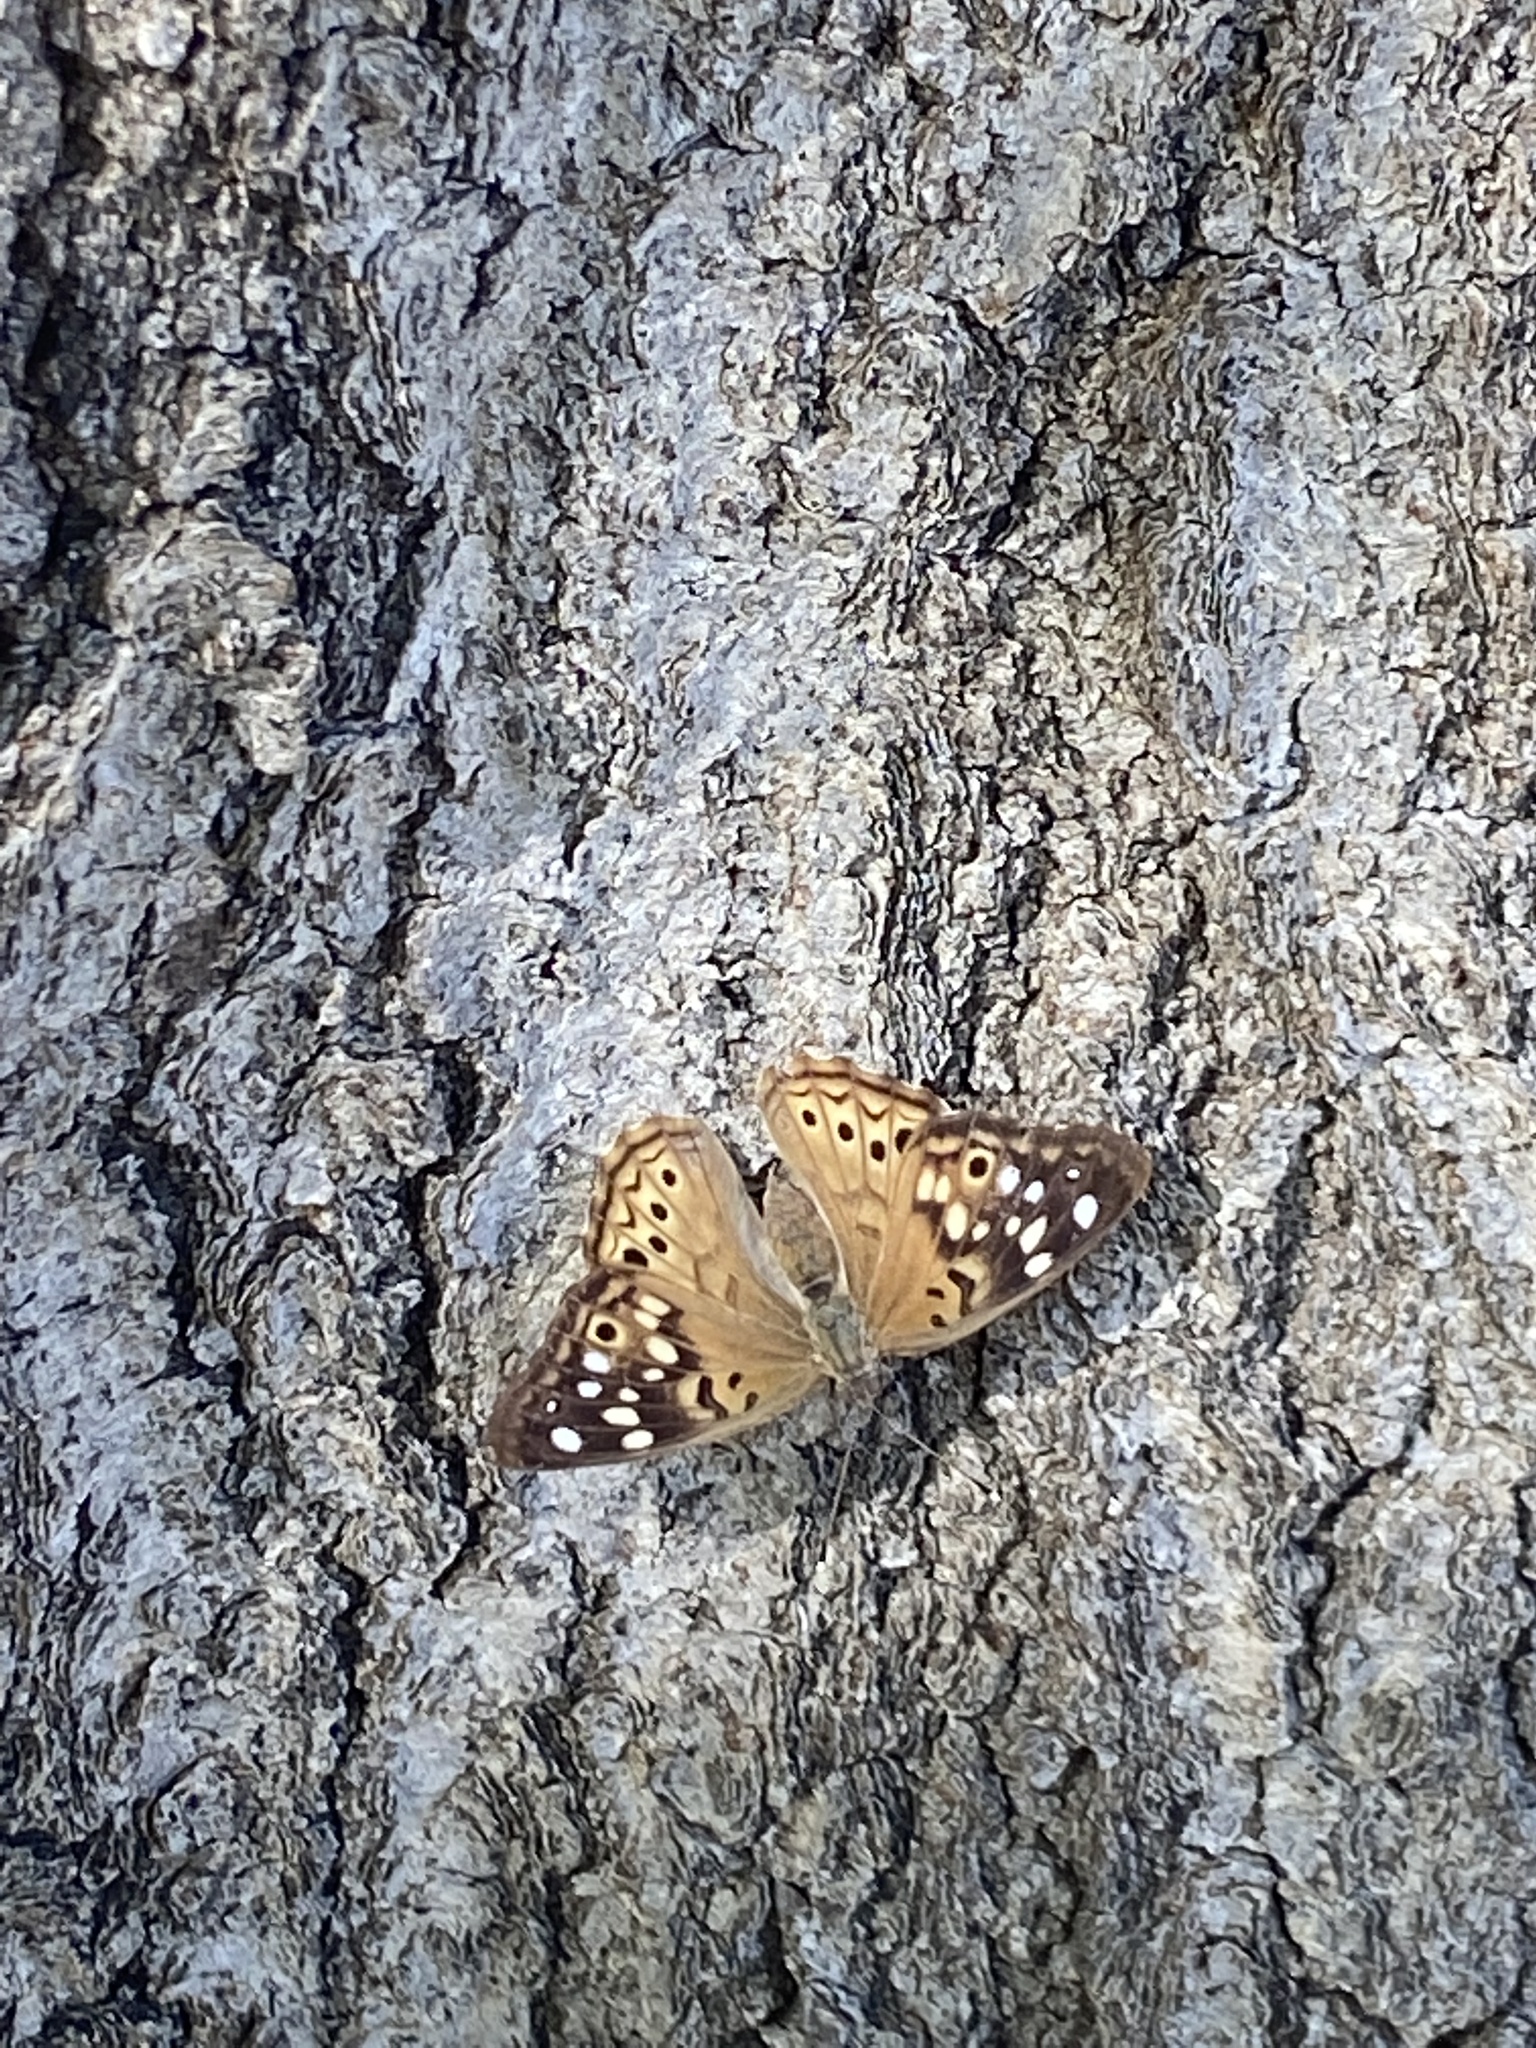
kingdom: Animalia
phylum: Arthropoda
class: Insecta
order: Lepidoptera
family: Nymphalidae
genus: Asterocampa
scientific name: Asterocampa celtis
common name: Hackberry emperor
